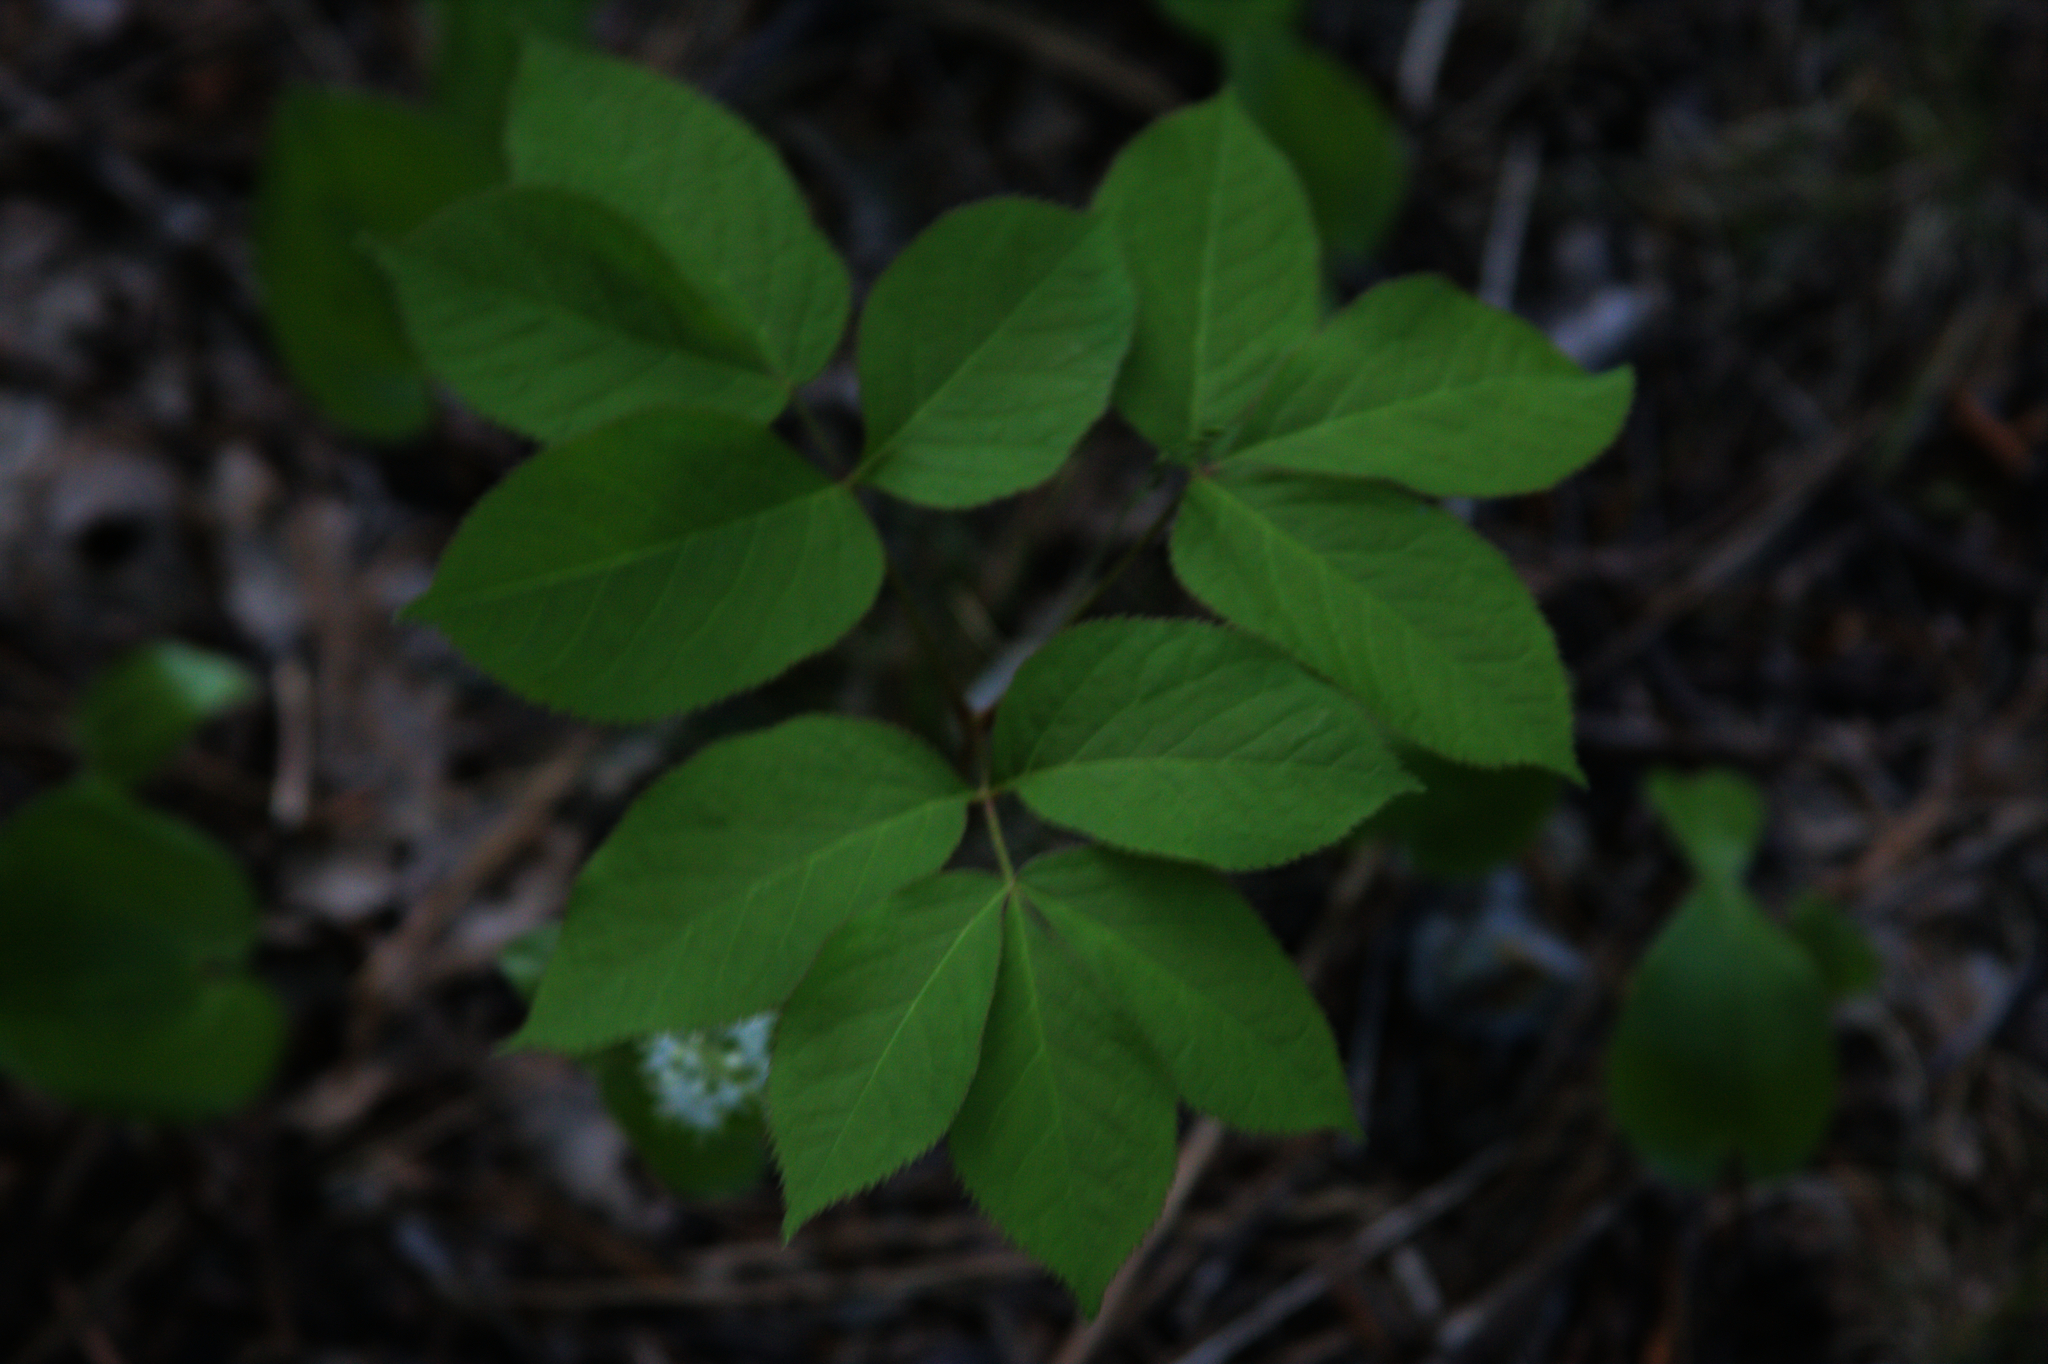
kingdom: Plantae
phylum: Tracheophyta
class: Magnoliopsida
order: Apiales
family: Araliaceae
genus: Aralia
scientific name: Aralia nudicaulis
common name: Wild sarsaparilla
